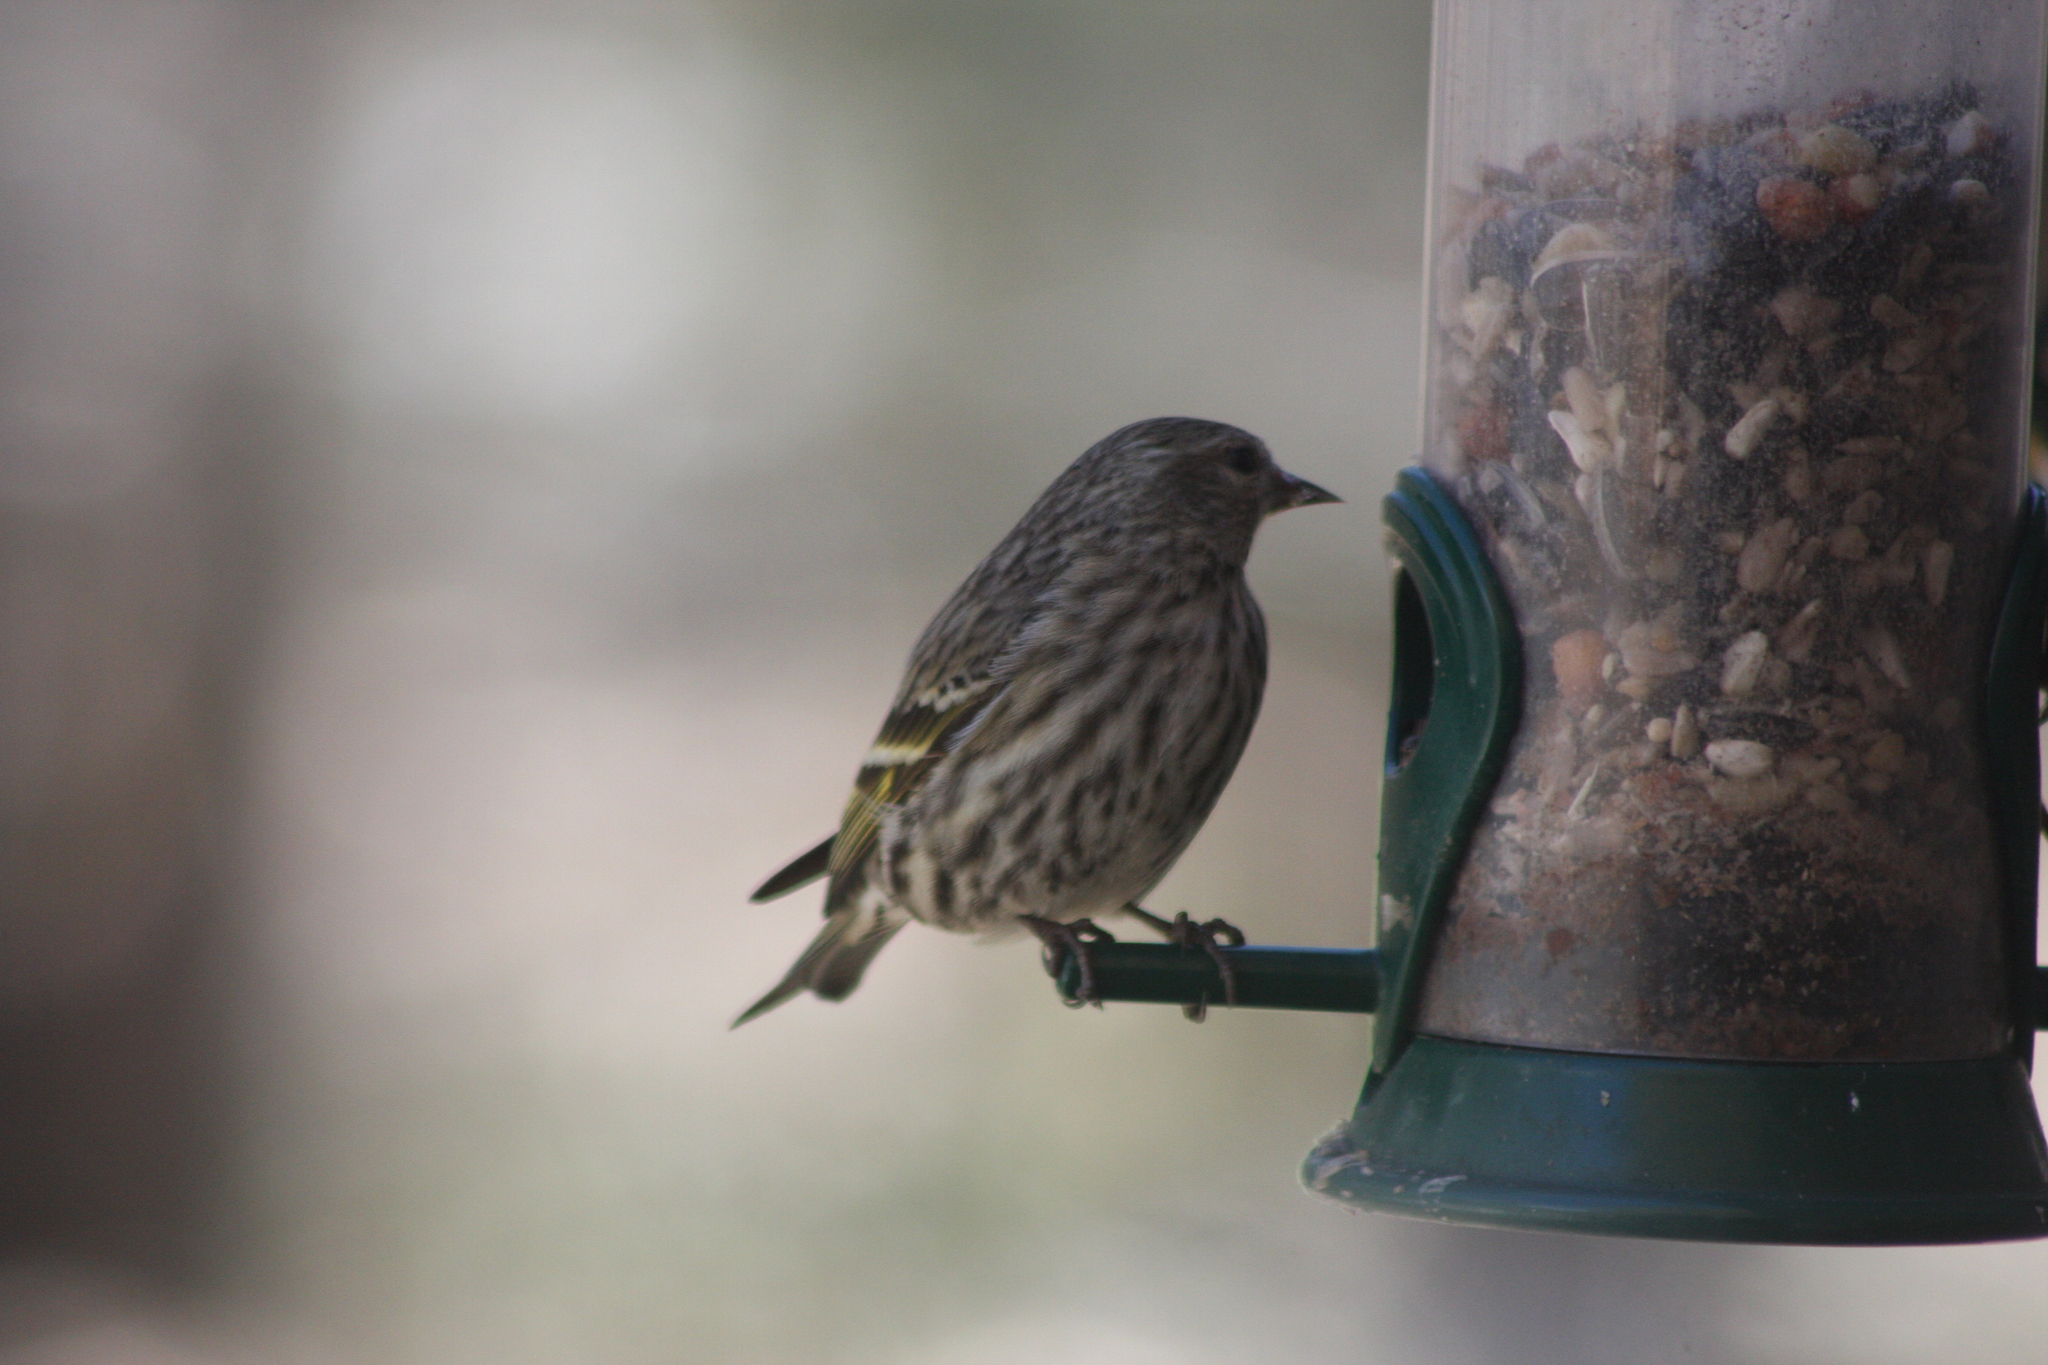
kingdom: Animalia
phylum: Chordata
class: Aves
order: Passeriformes
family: Fringillidae
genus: Spinus
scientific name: Spinus pinus
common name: Pine siskin
